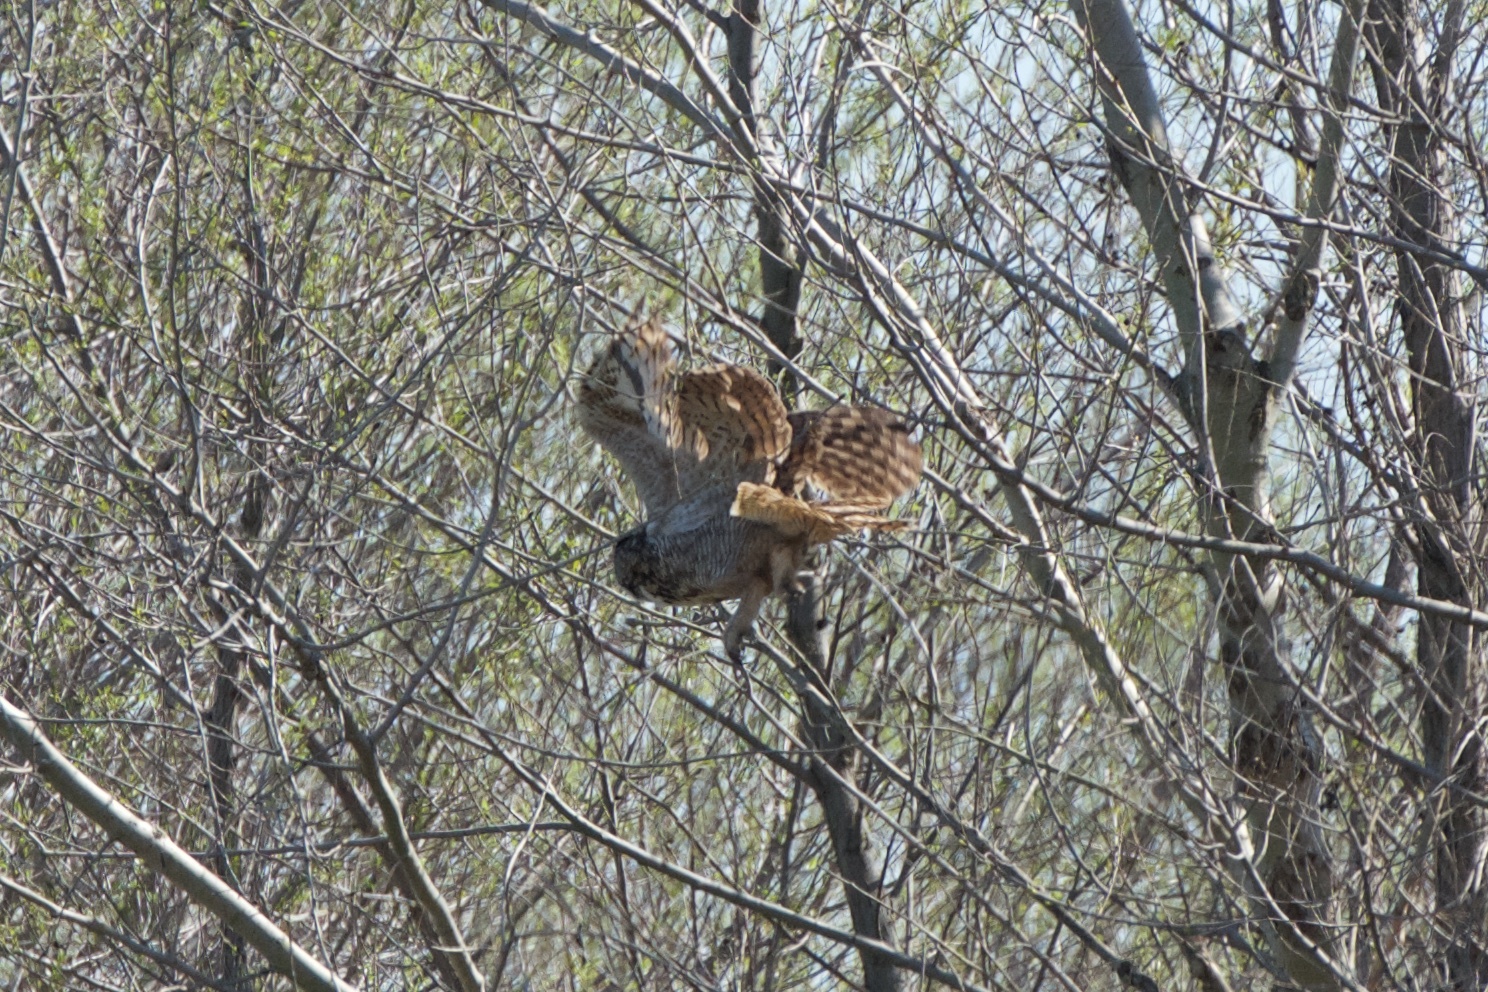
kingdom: Animalia
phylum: Chordata
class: Aves
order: Strigiformes
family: Strigidae
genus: Bubo
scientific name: Bubo virginianus
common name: Great horned owl
